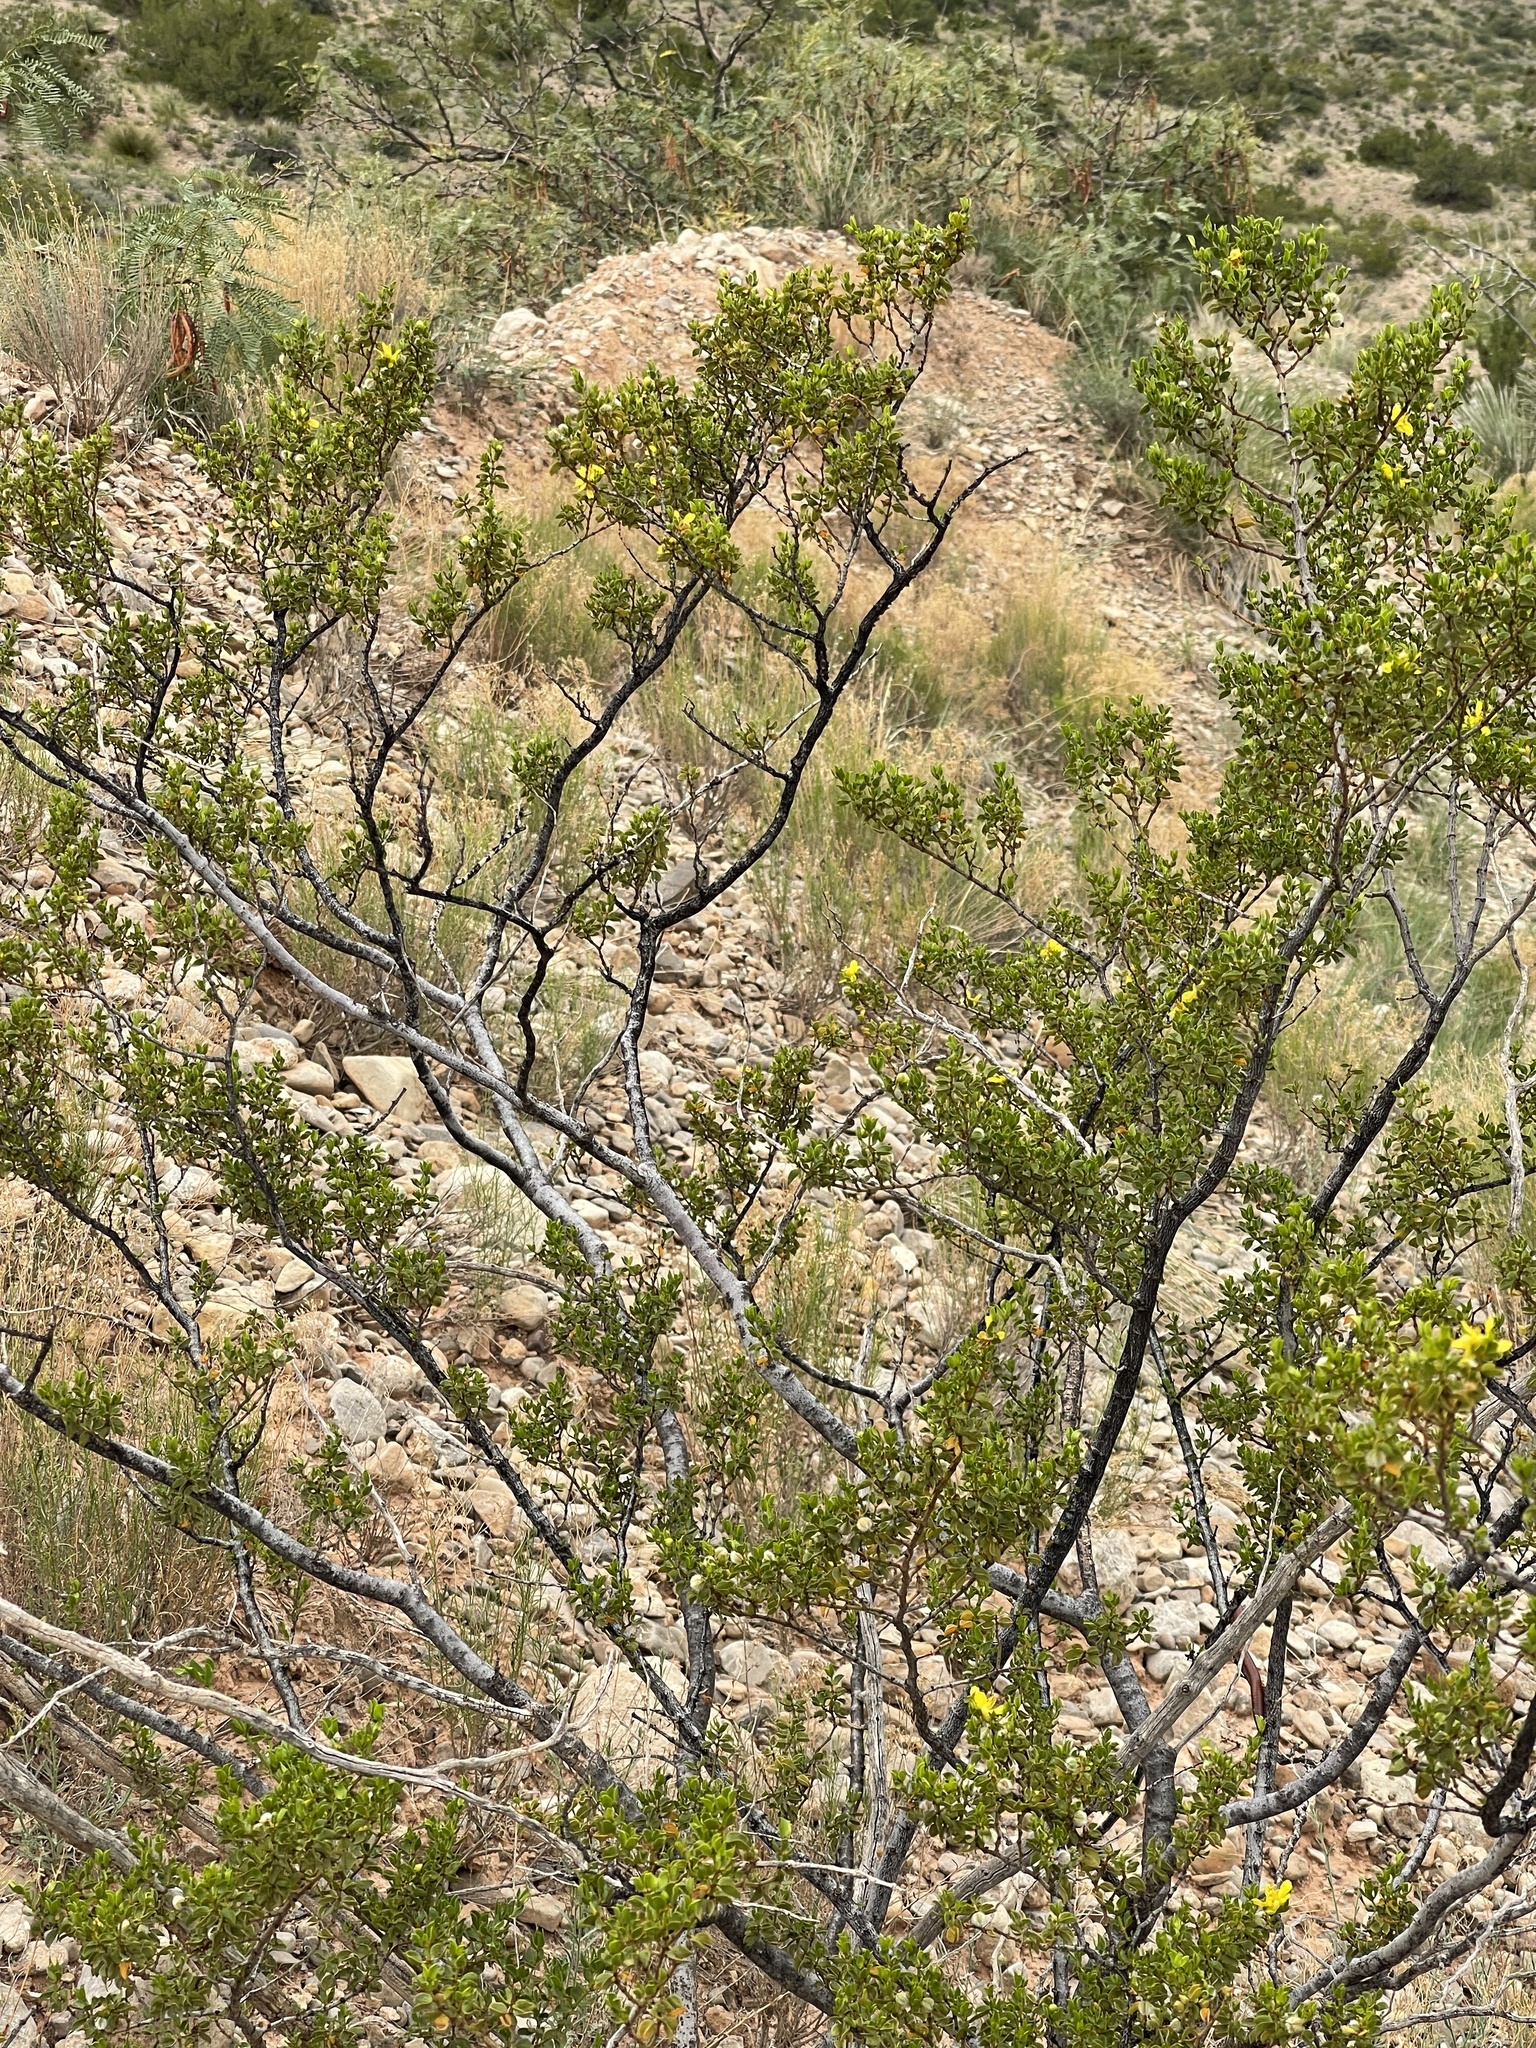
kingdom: Plantae
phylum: Tracheophyta
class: Magnoliopsida
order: Zygophyllales
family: Zygophyllaceae
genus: Larrea
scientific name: Larrea tridentata
